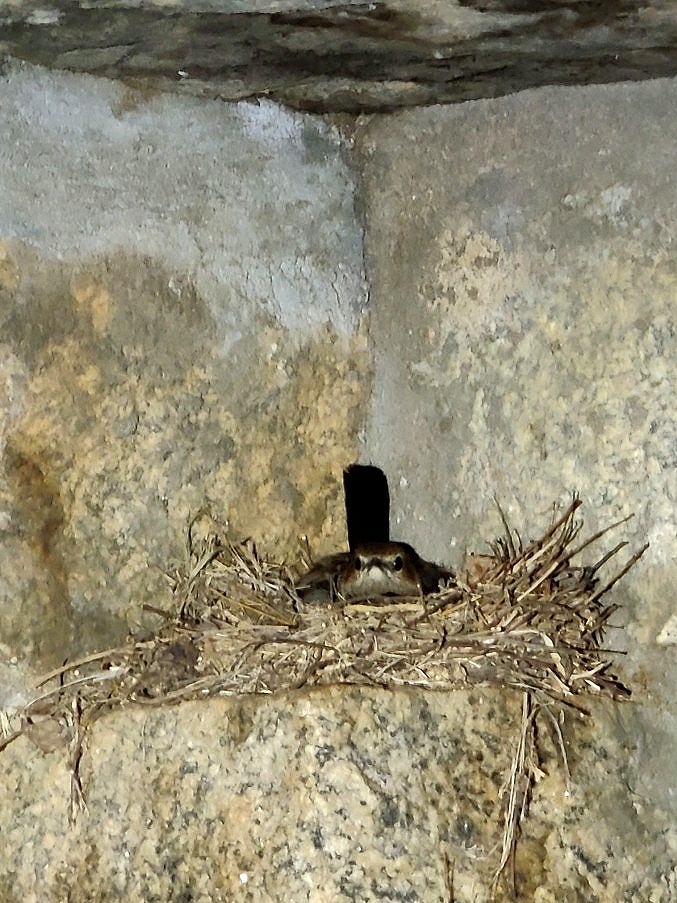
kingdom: Animalia
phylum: Chordata
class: Aves
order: Passeriformes
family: Muscicapidae
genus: Saxicoloides
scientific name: Saxicoloides fulicatus
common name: Indian robin
